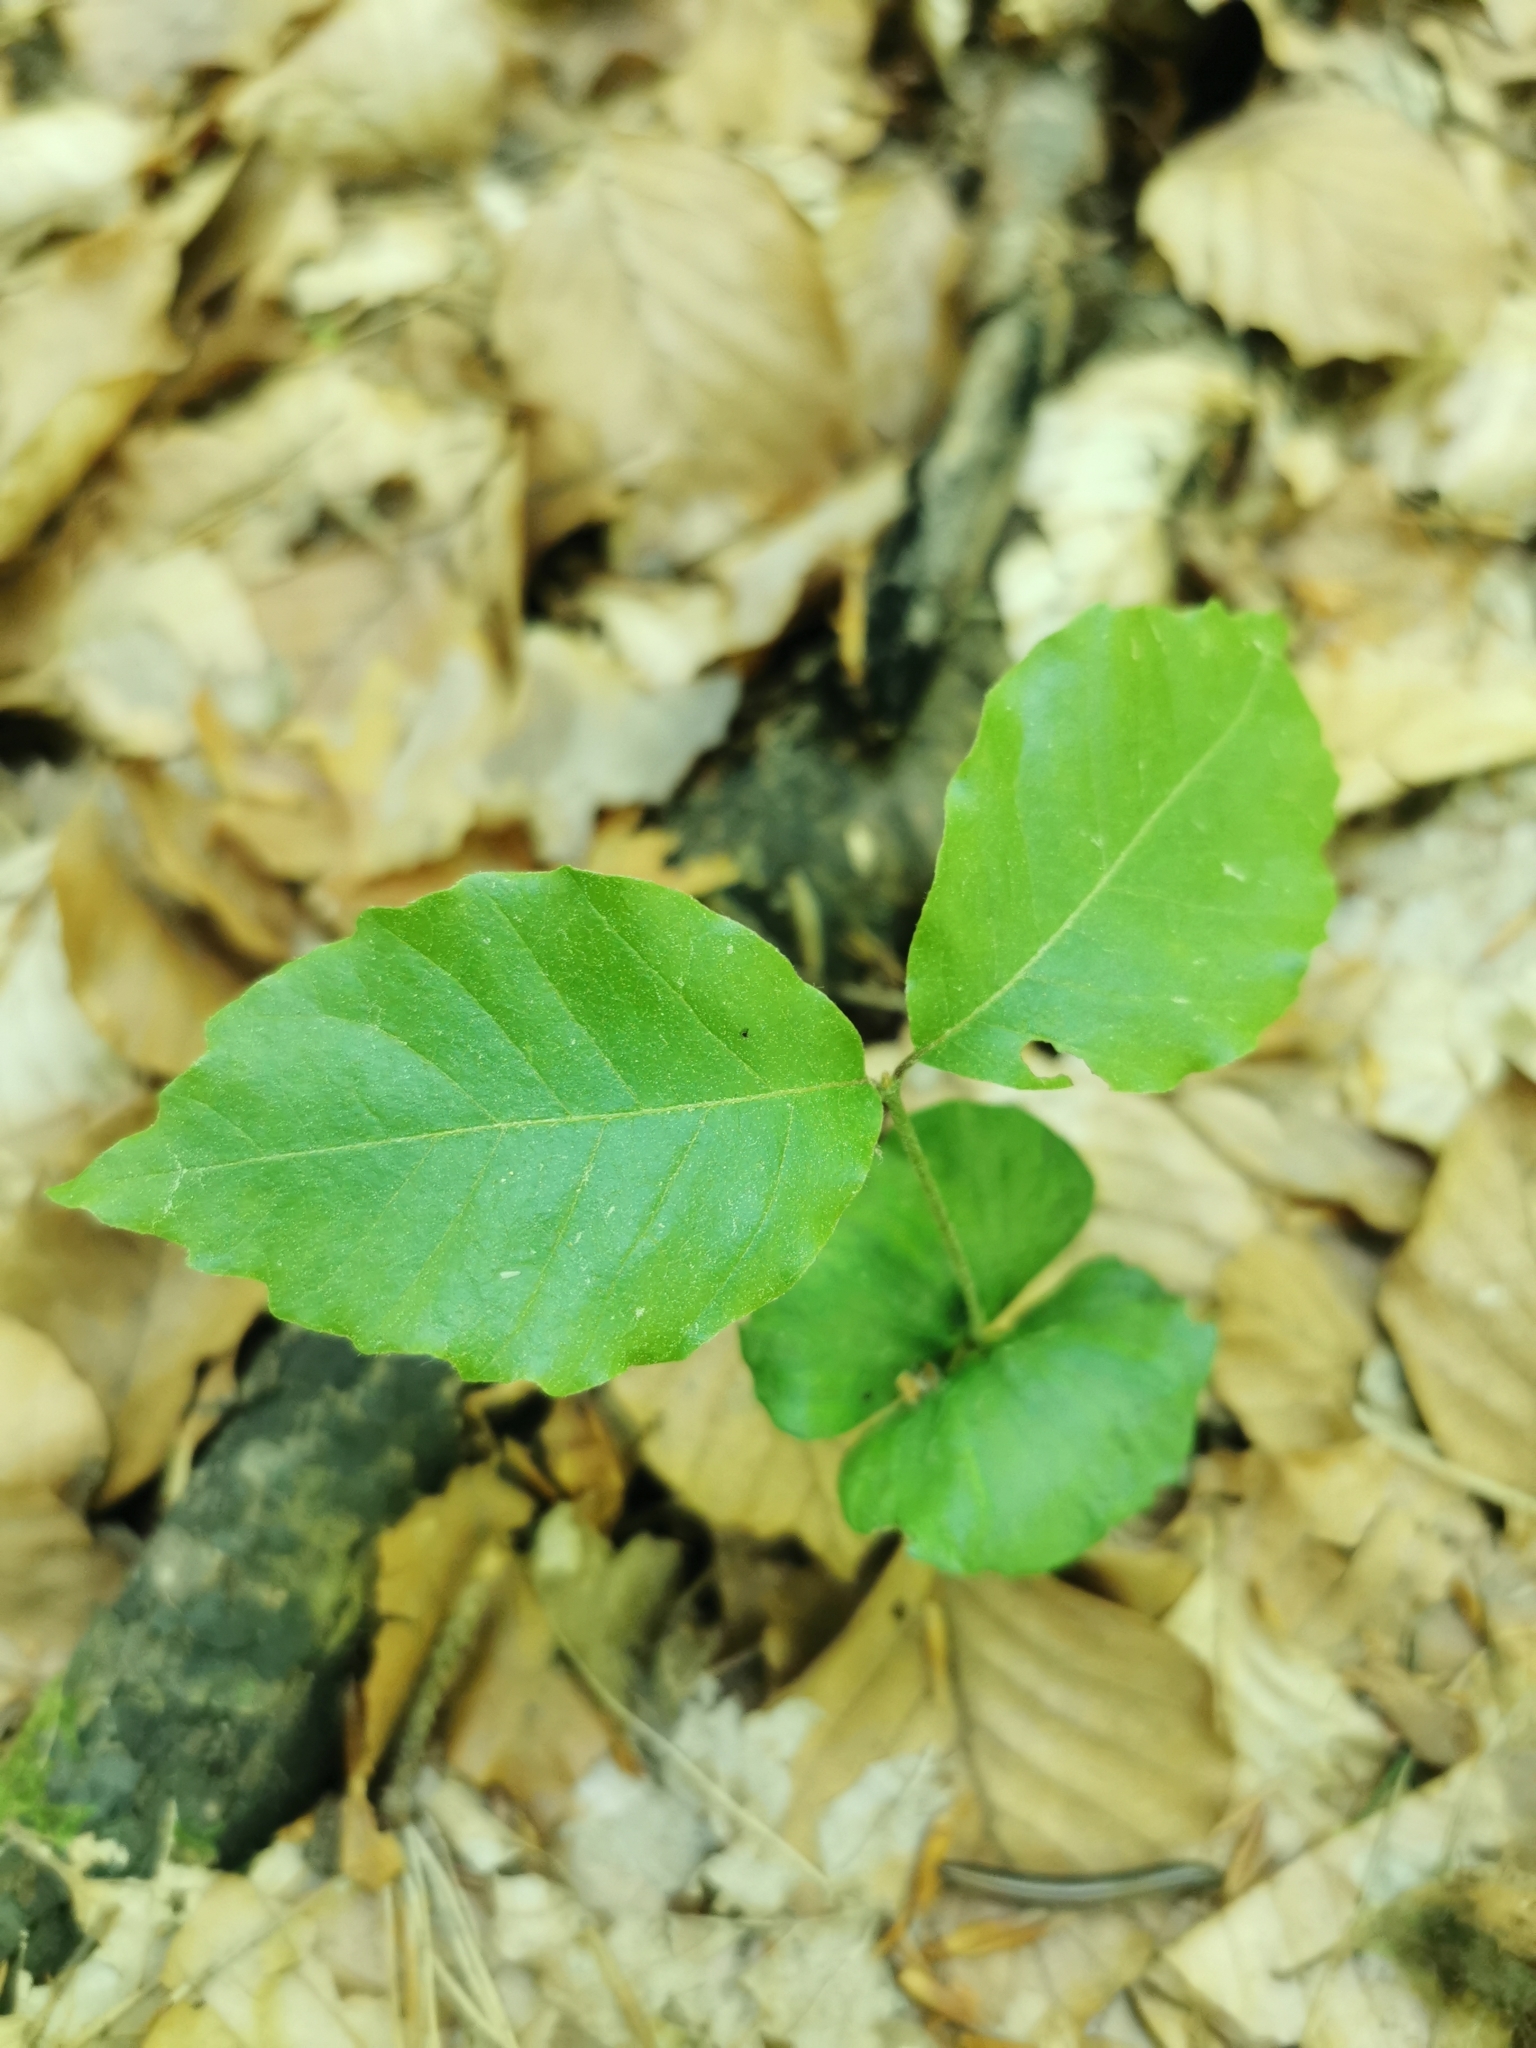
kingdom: Plantae
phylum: Tracheophyta
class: Magnoliopsida
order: Fagales
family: Fagaceae
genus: Fagus
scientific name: Fagus sylvatica
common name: Beech
